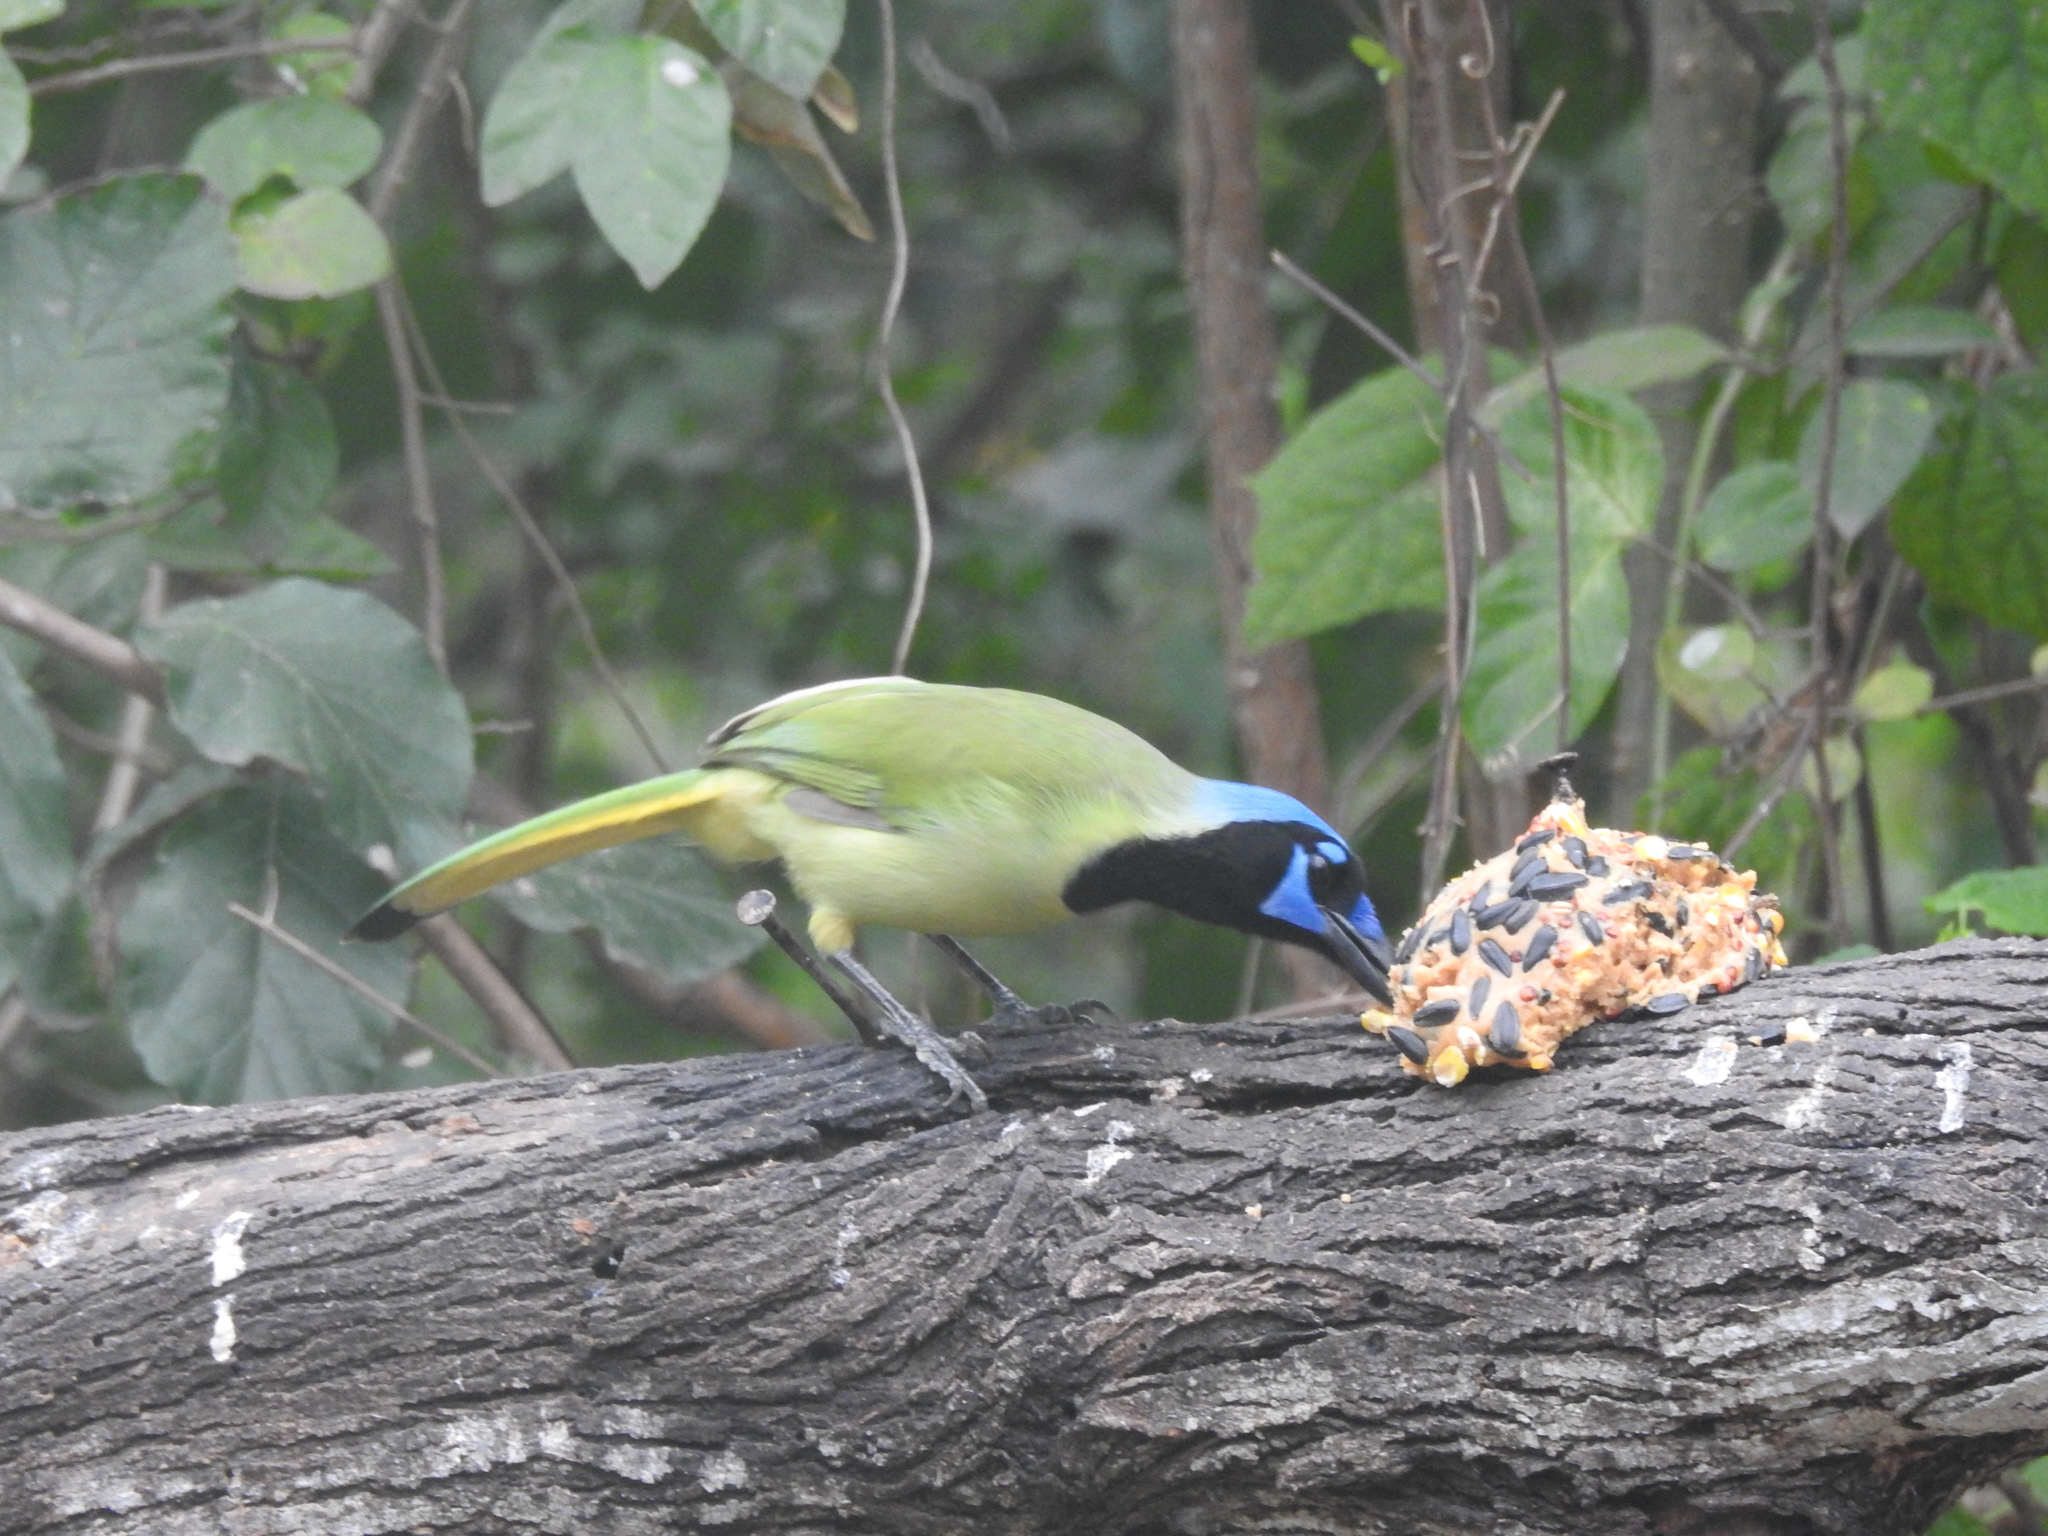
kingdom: Animalia
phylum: Chordata
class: Aves
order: Passeriformes
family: Corvidae
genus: Cyanocorax
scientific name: Cyanocorax yncas
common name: Green jay
